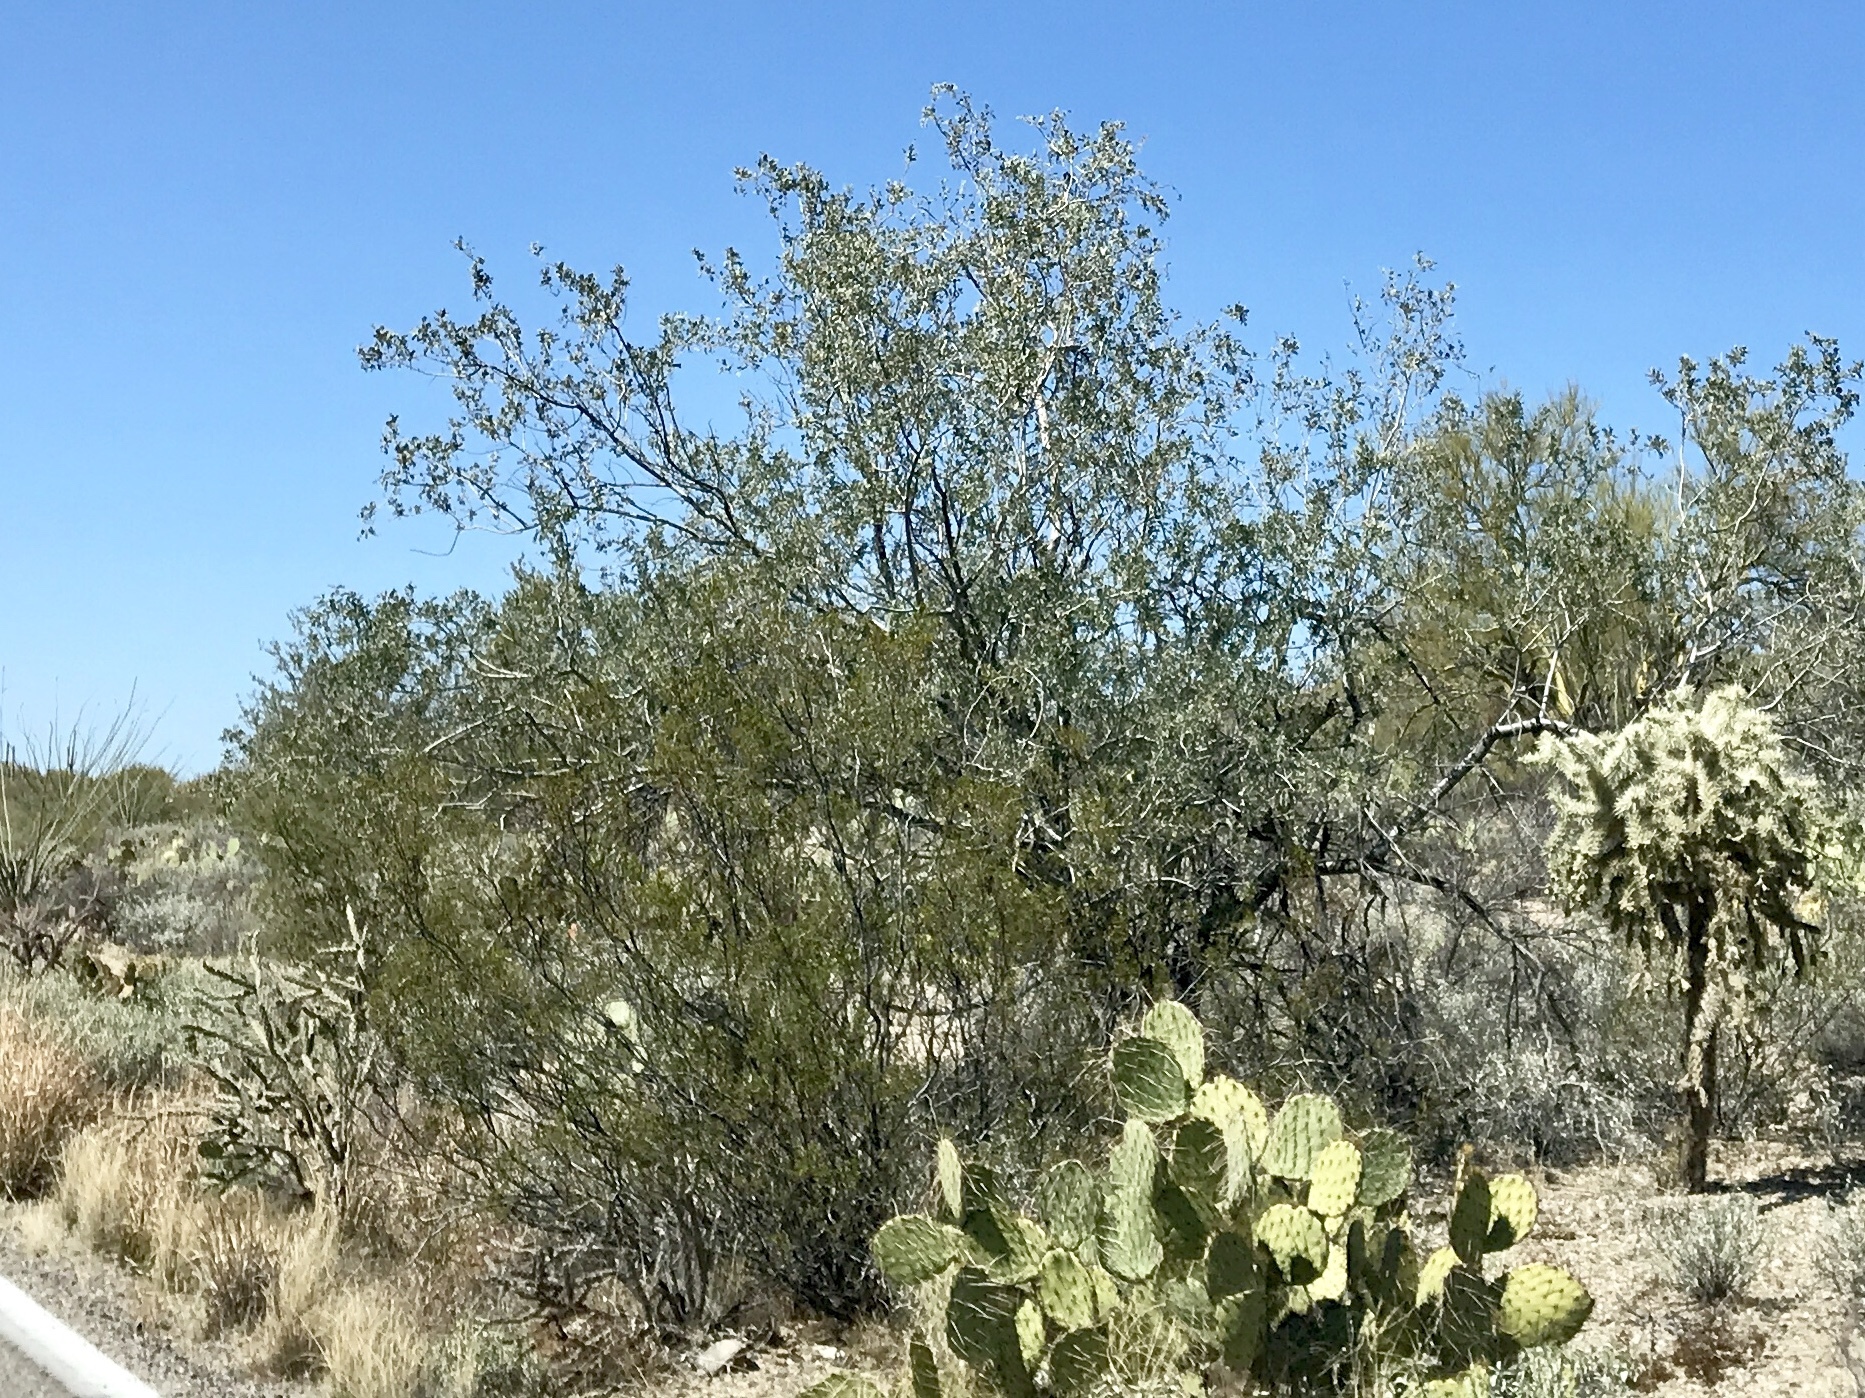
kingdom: Plantae
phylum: Tracheophyta
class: Magnoliopsida
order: Fabales
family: Fabaceae
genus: Olneya
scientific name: Olneya tesota
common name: Desert ironwood
